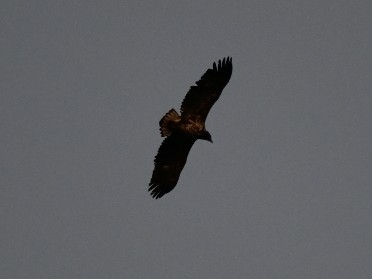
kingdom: Animalia
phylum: Chordata
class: Aves
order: Accipitriformes
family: Accipitridae
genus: Haliaeetus
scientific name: Haliaeetus albicilla
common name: White-tailed eagle
